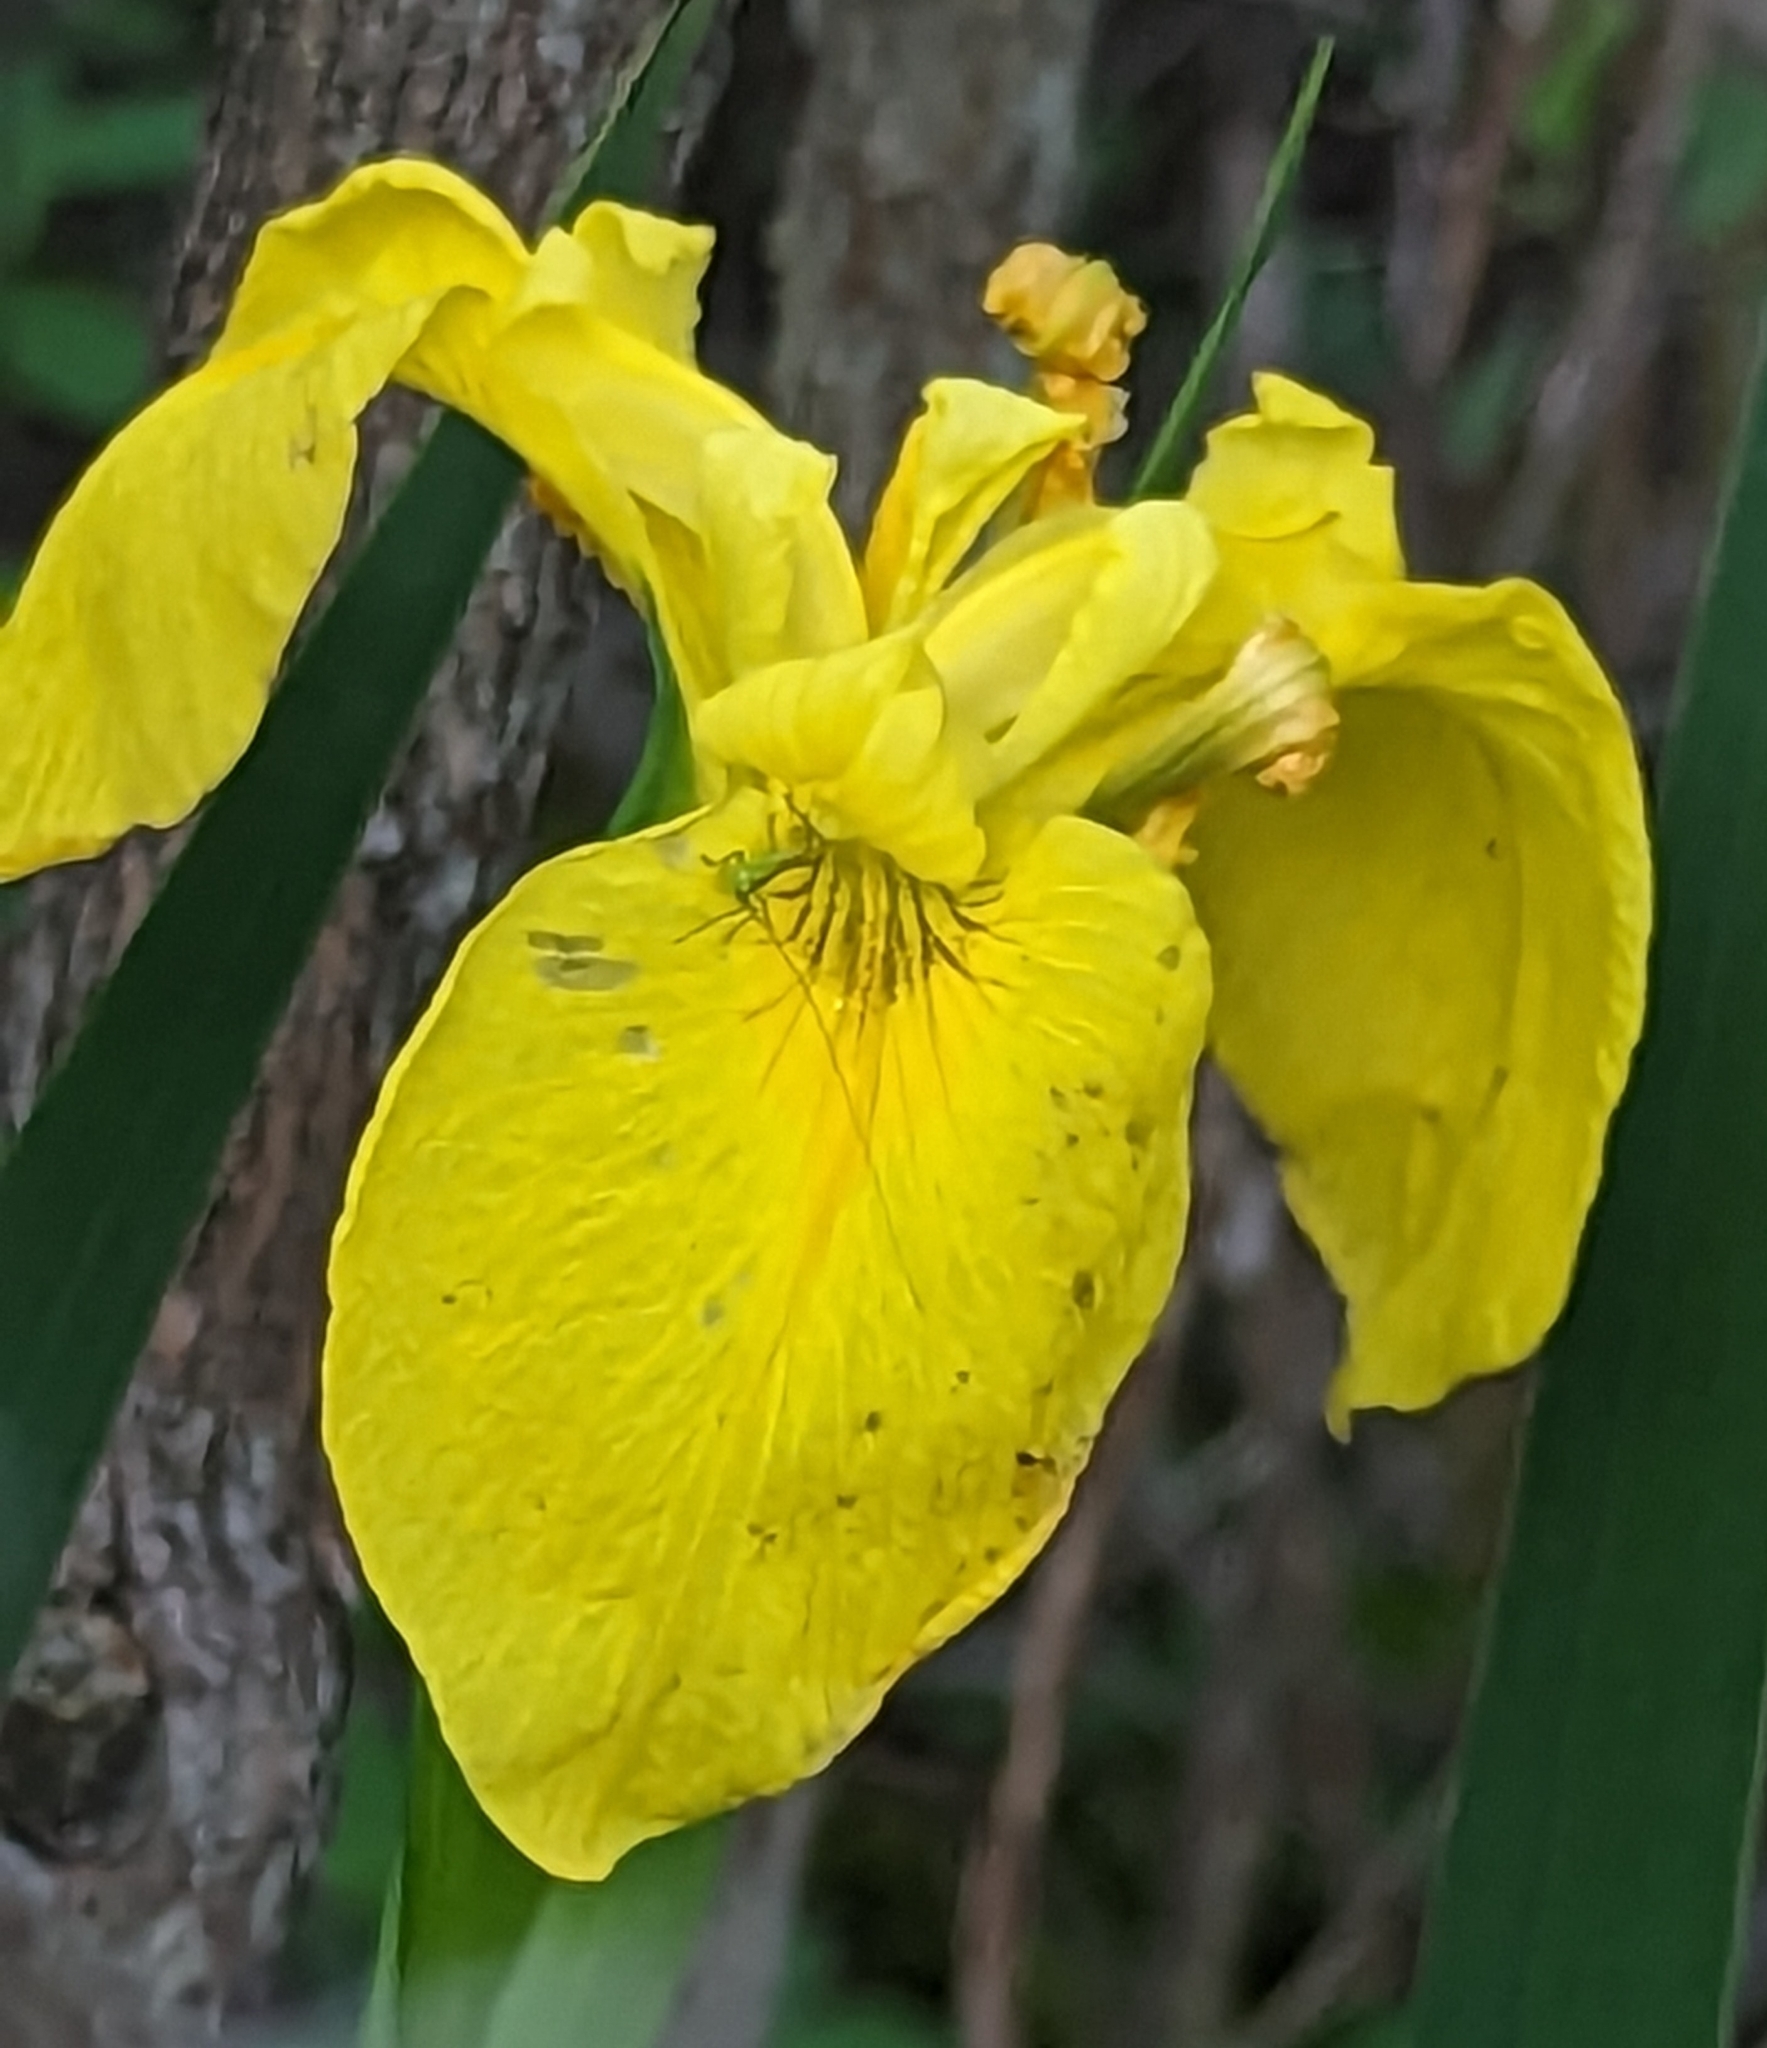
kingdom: Plantae
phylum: Tracheophyta
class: Liliopsida
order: Asparagales
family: Iridaceae
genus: Iris
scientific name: Iris pseudacorus
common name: Yellow flag
